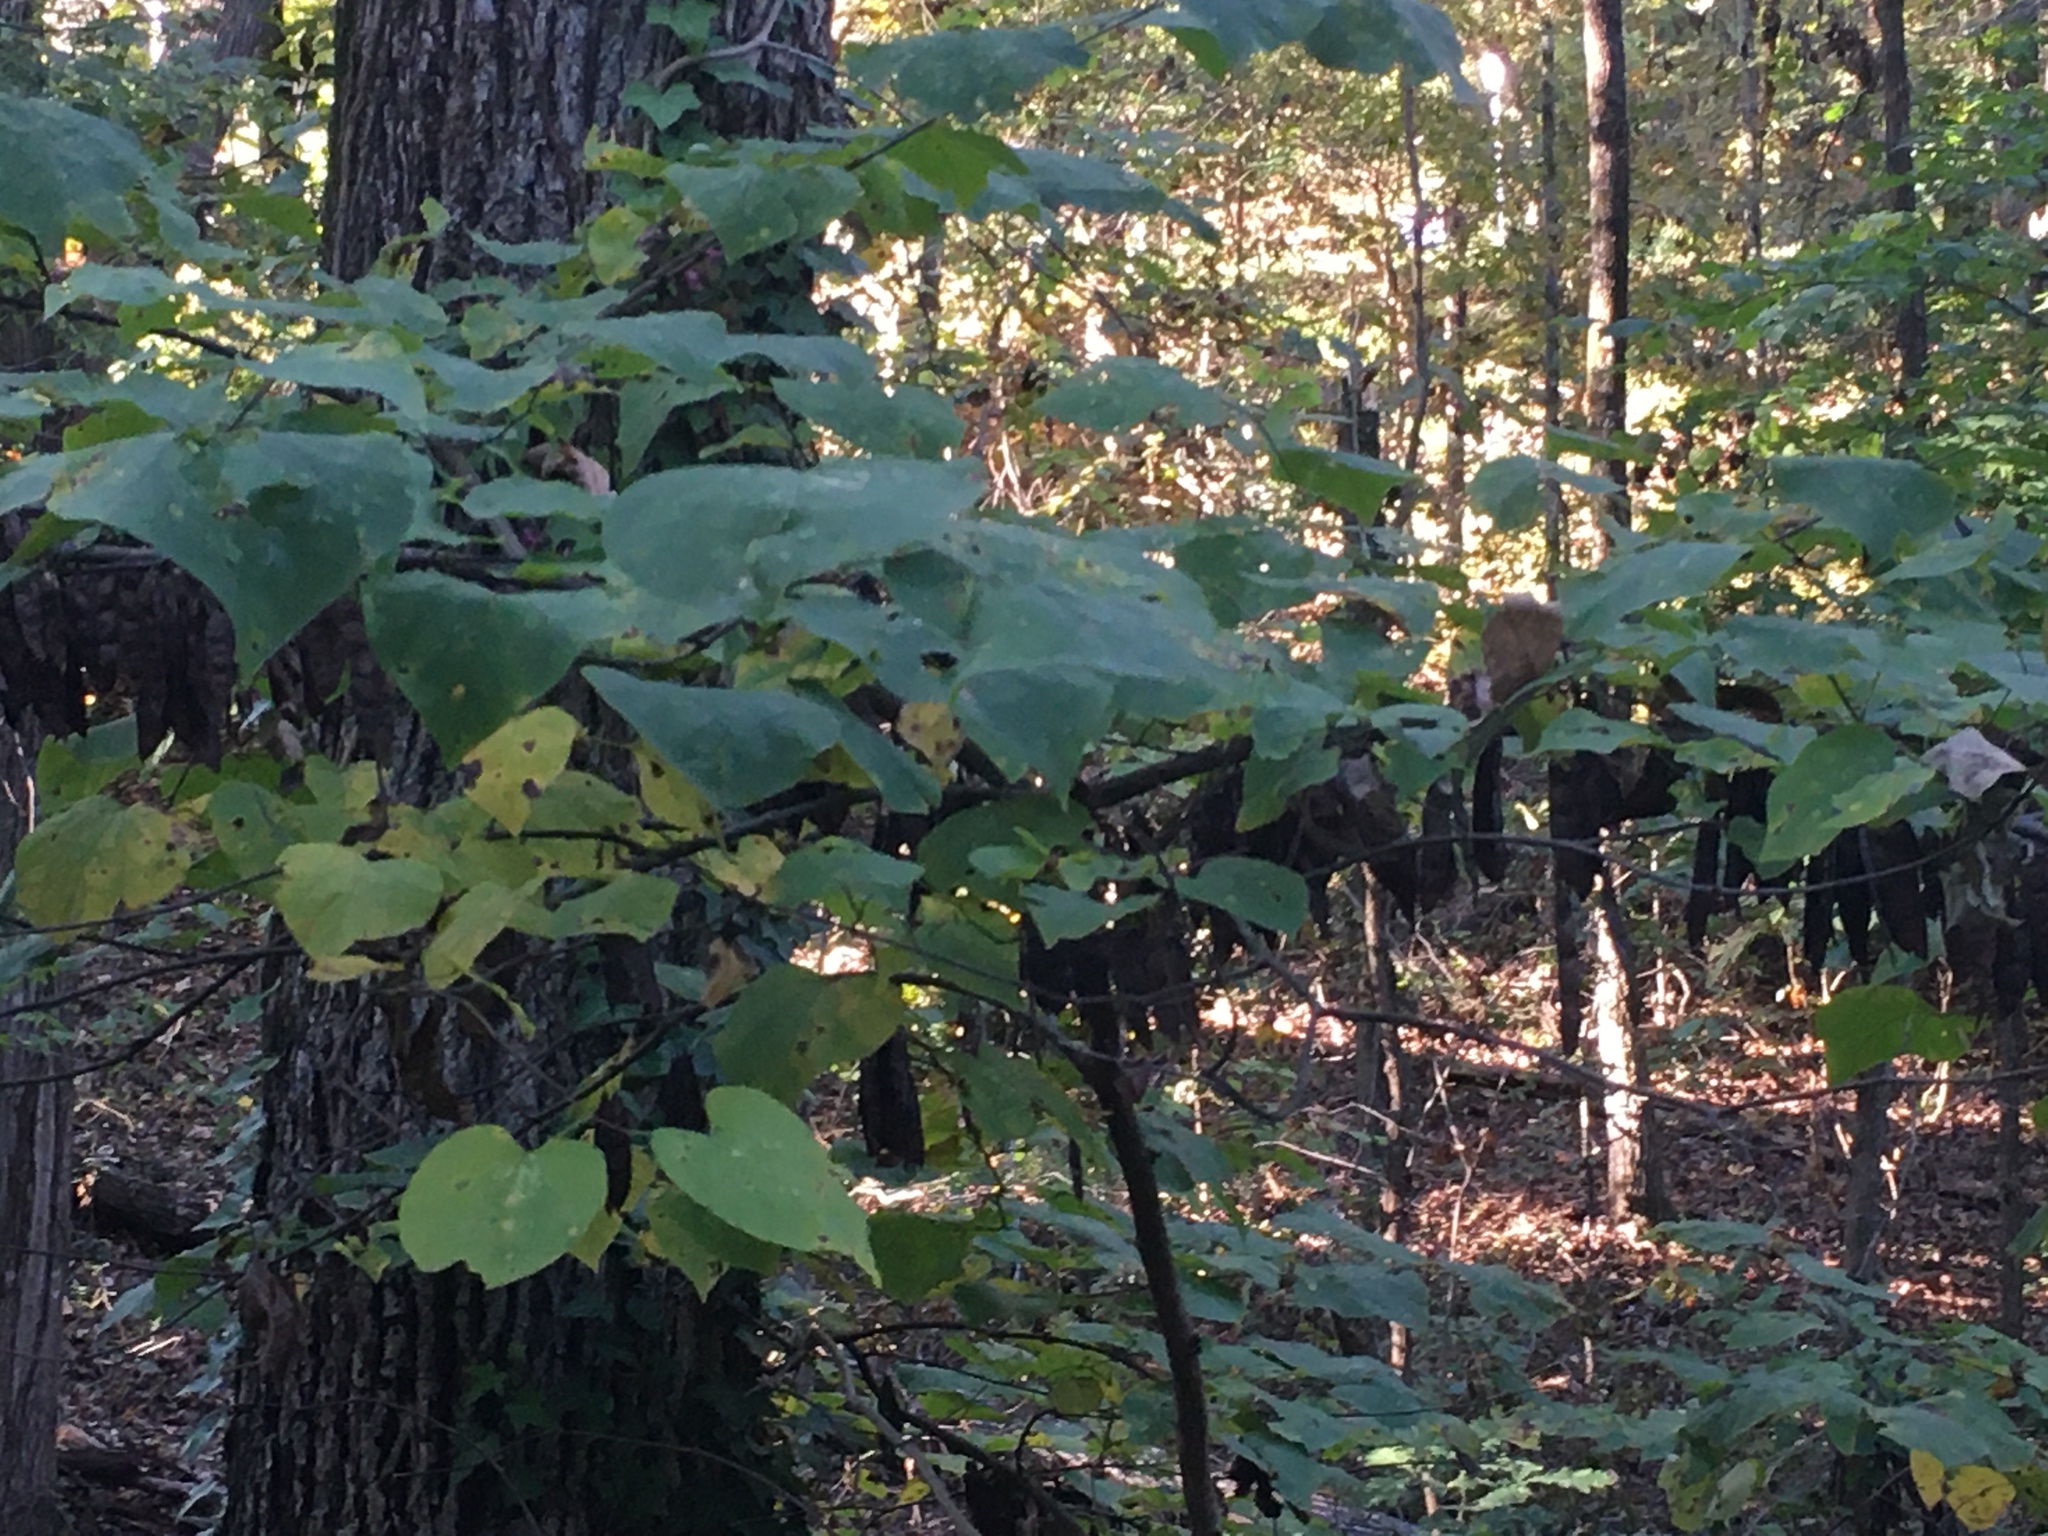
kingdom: Plantae
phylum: Tracheophyta
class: Magnoliopsida
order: Fabales
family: Fabaceae
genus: Cercis
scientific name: Cercis canadensis
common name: Eastern redbud
